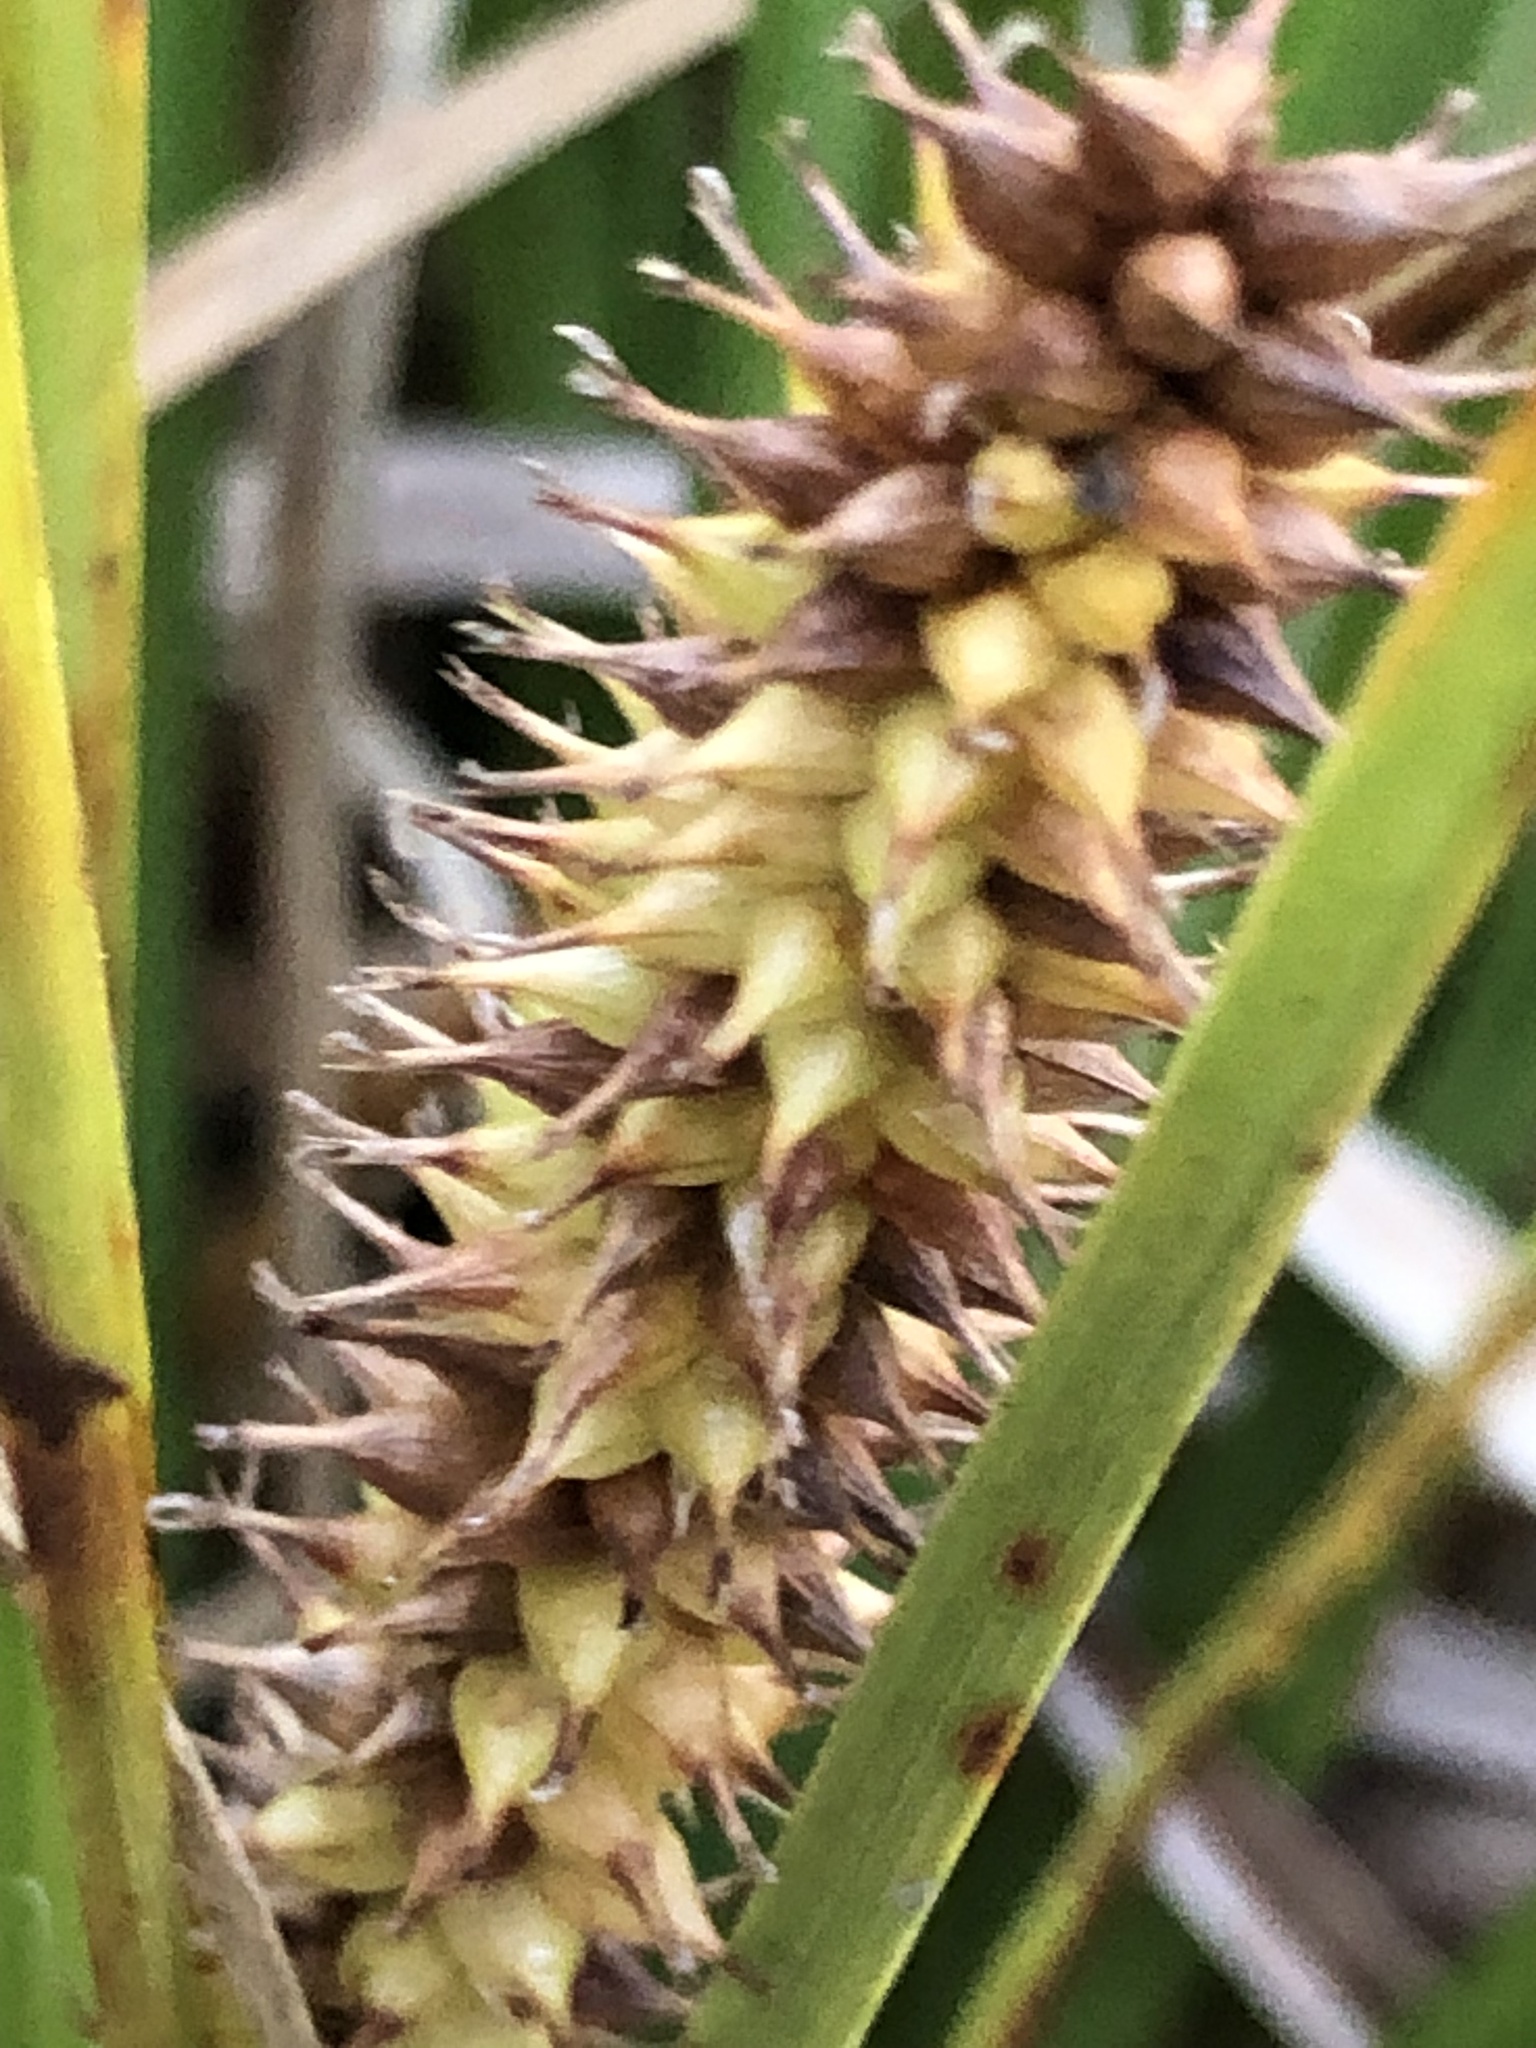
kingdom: Plantae
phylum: Tracheophyta
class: Liliopsida
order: Poales
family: Cyperaceae
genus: Carex
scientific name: Carex utriculata
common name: Beaked sedge
